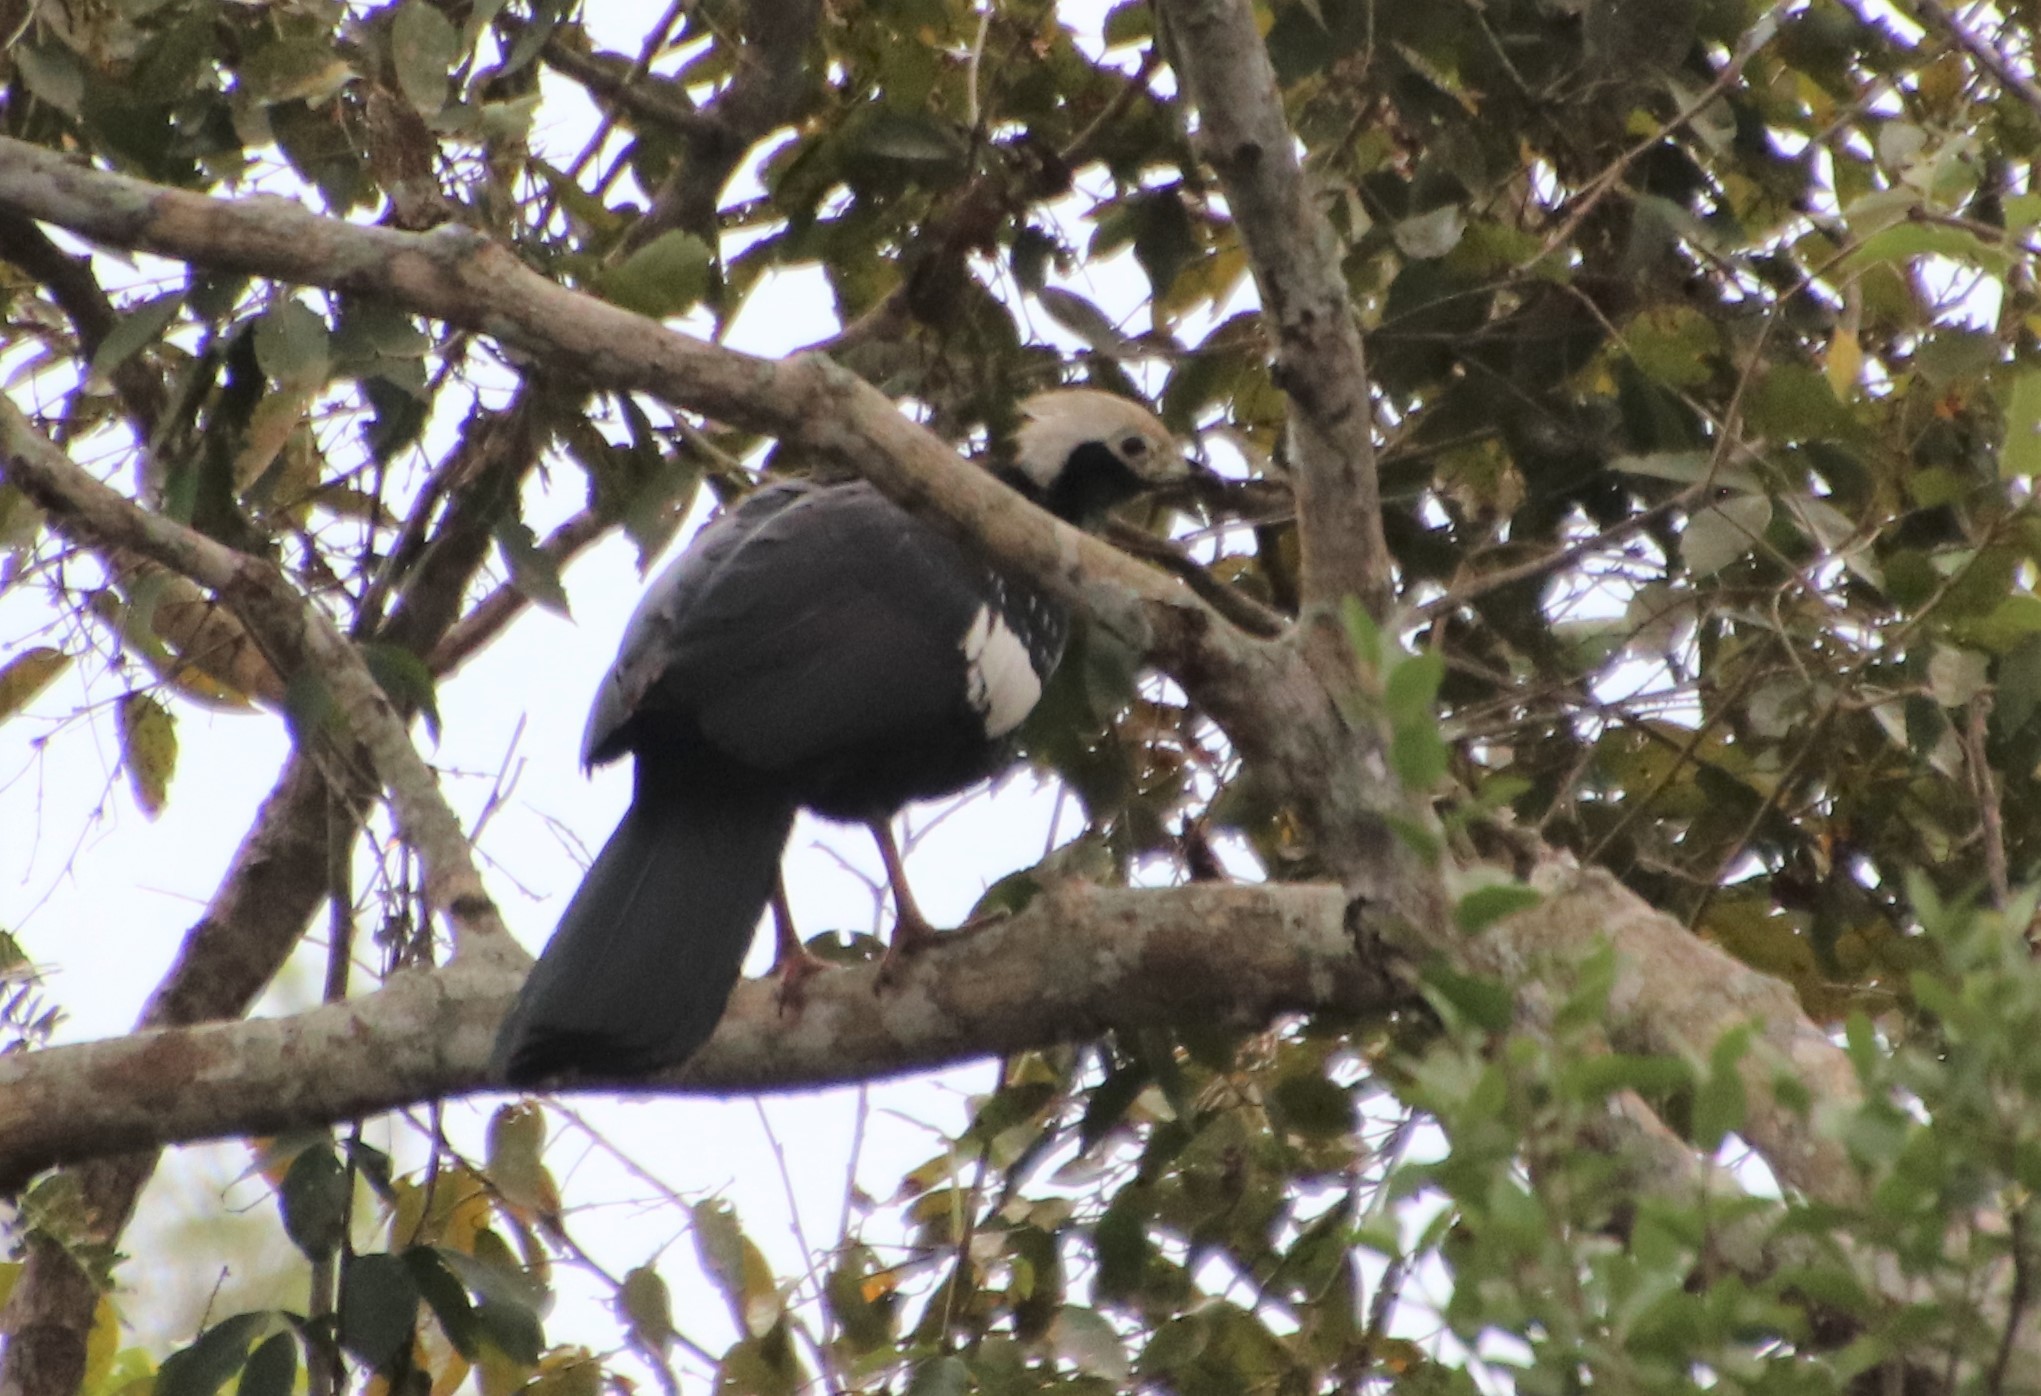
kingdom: Animalia
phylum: Chordata
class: Aves
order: Galliformes
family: Cracidae
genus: Pipile
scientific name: Pipile cumanensis
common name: Blue-throated piping-guan
